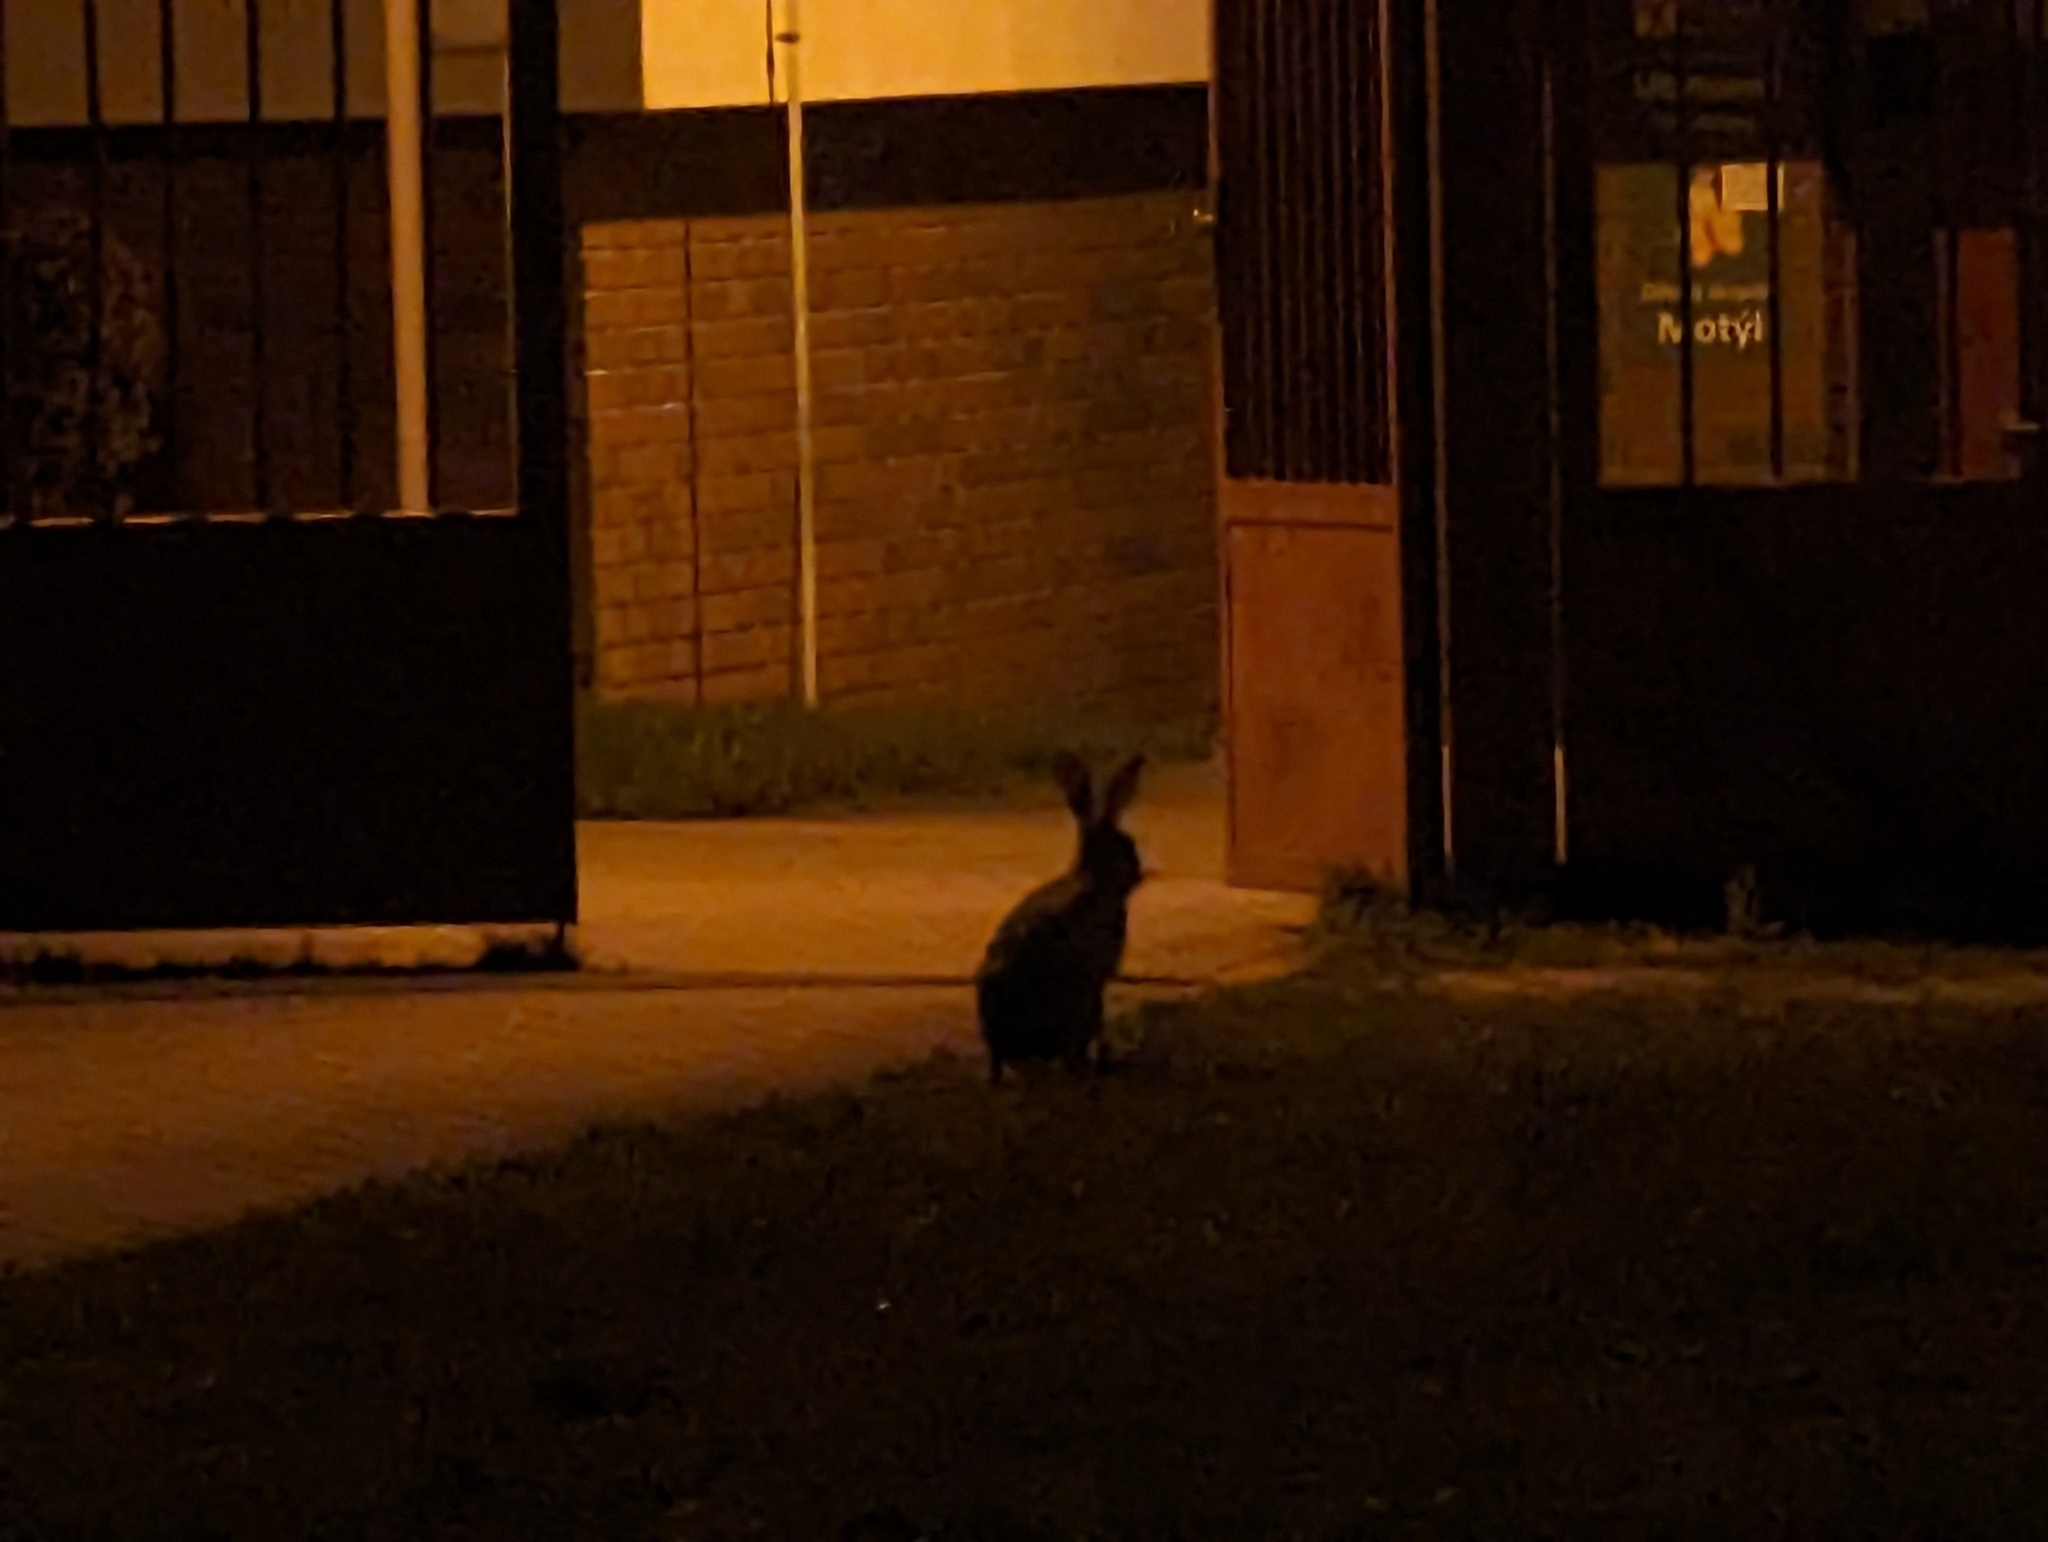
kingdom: Animalia
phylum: Chordata
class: Mammalia
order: Lagomorpha
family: Leporidae
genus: Lepus
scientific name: Lepus europaeus
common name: European hare
